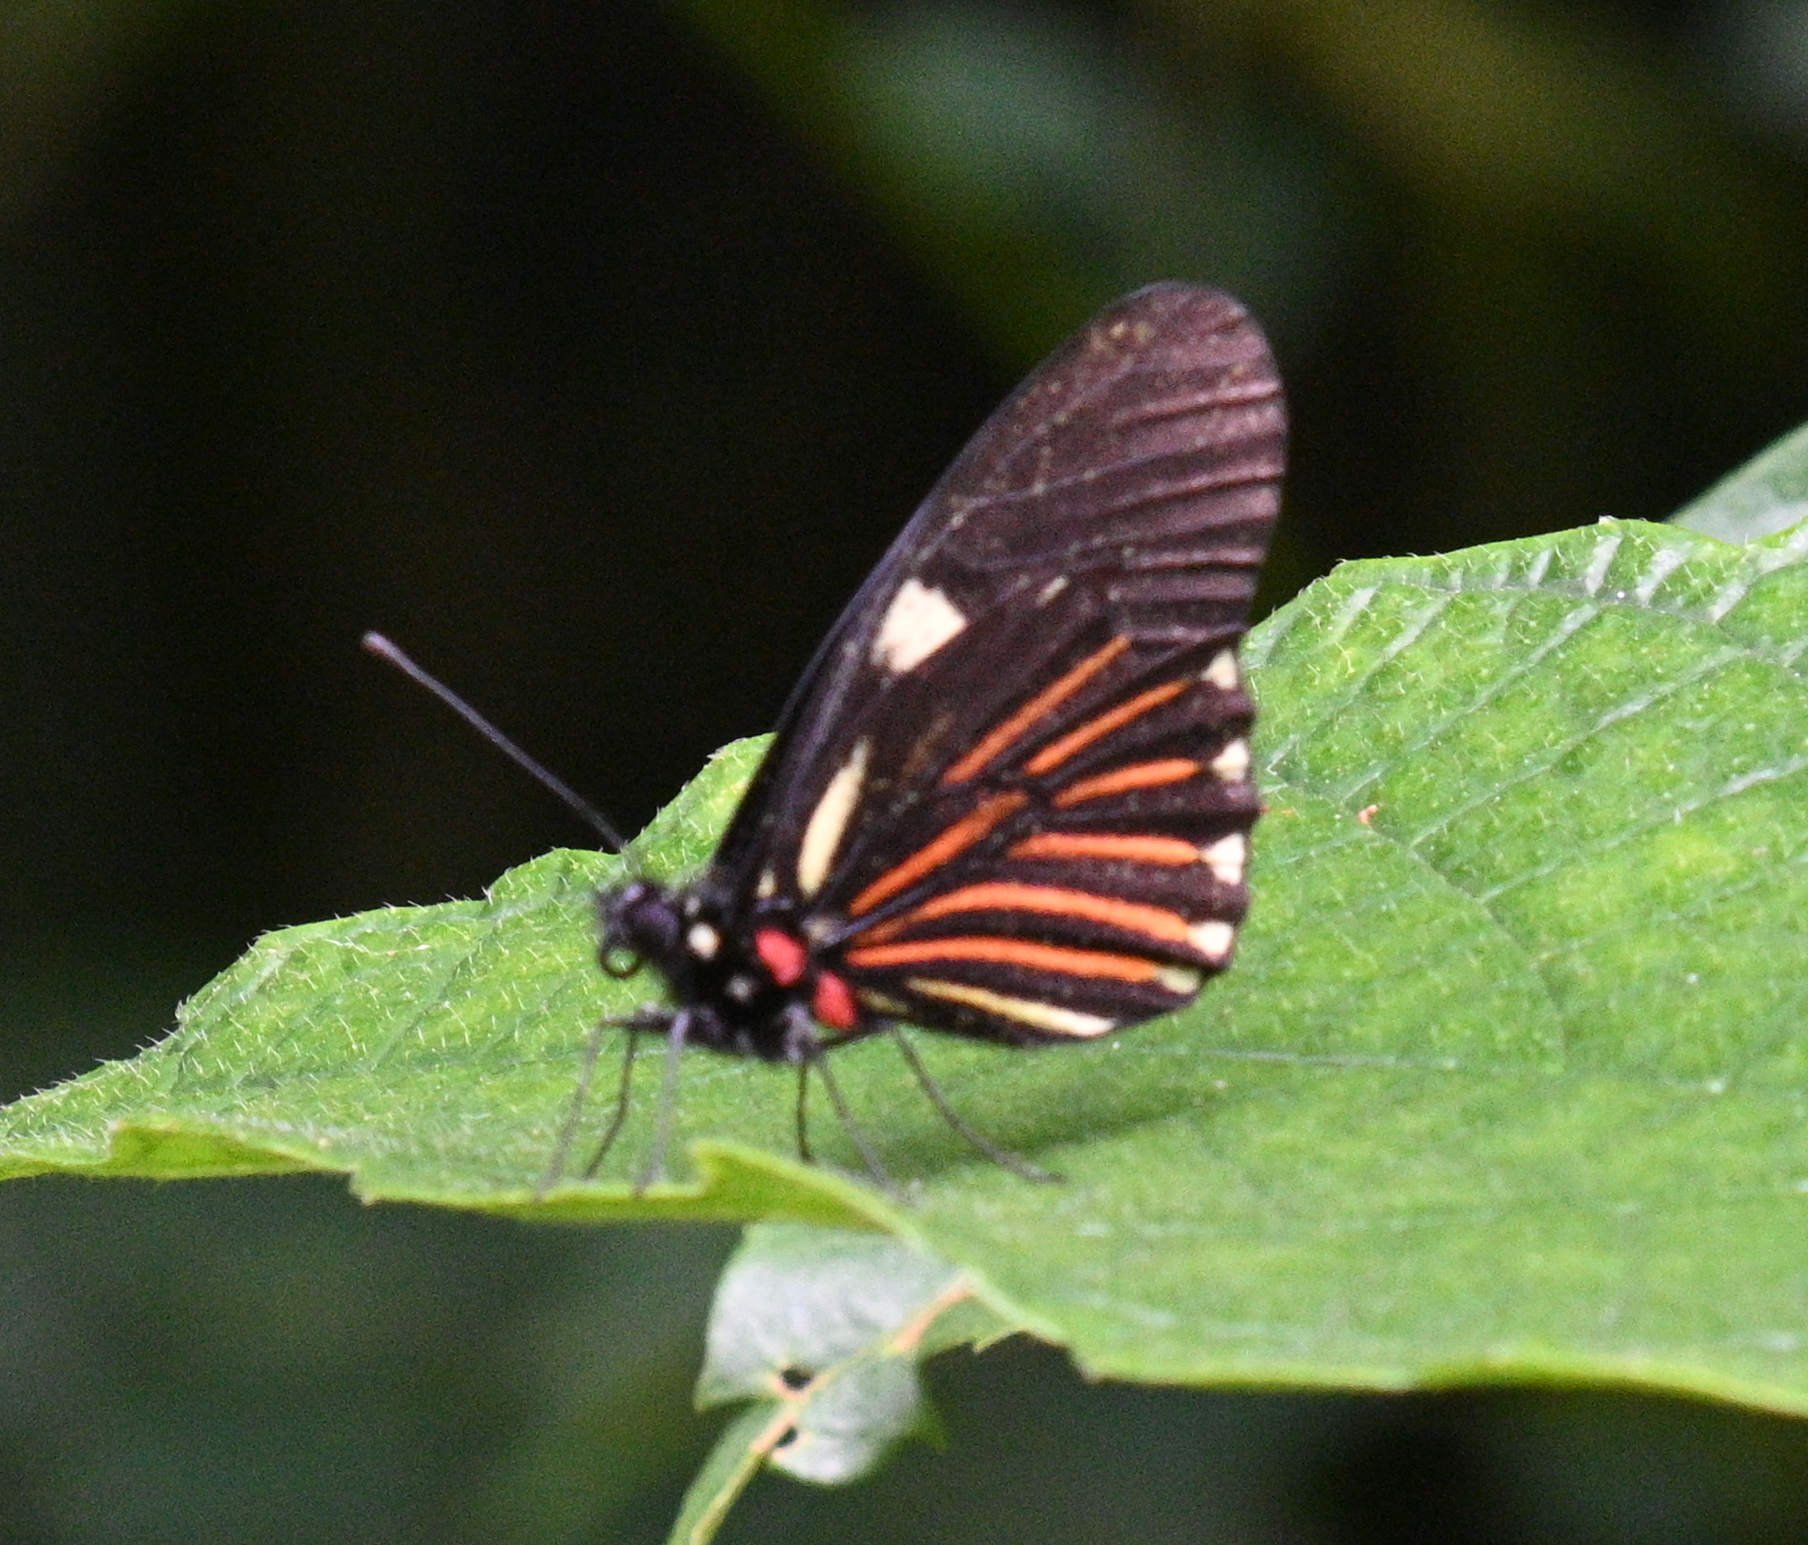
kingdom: Animalia
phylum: Arthropoda
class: Insecta
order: Lepidoptera
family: Pieridae
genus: Archonias
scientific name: Archonias brassolis
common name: Cattleheart white
